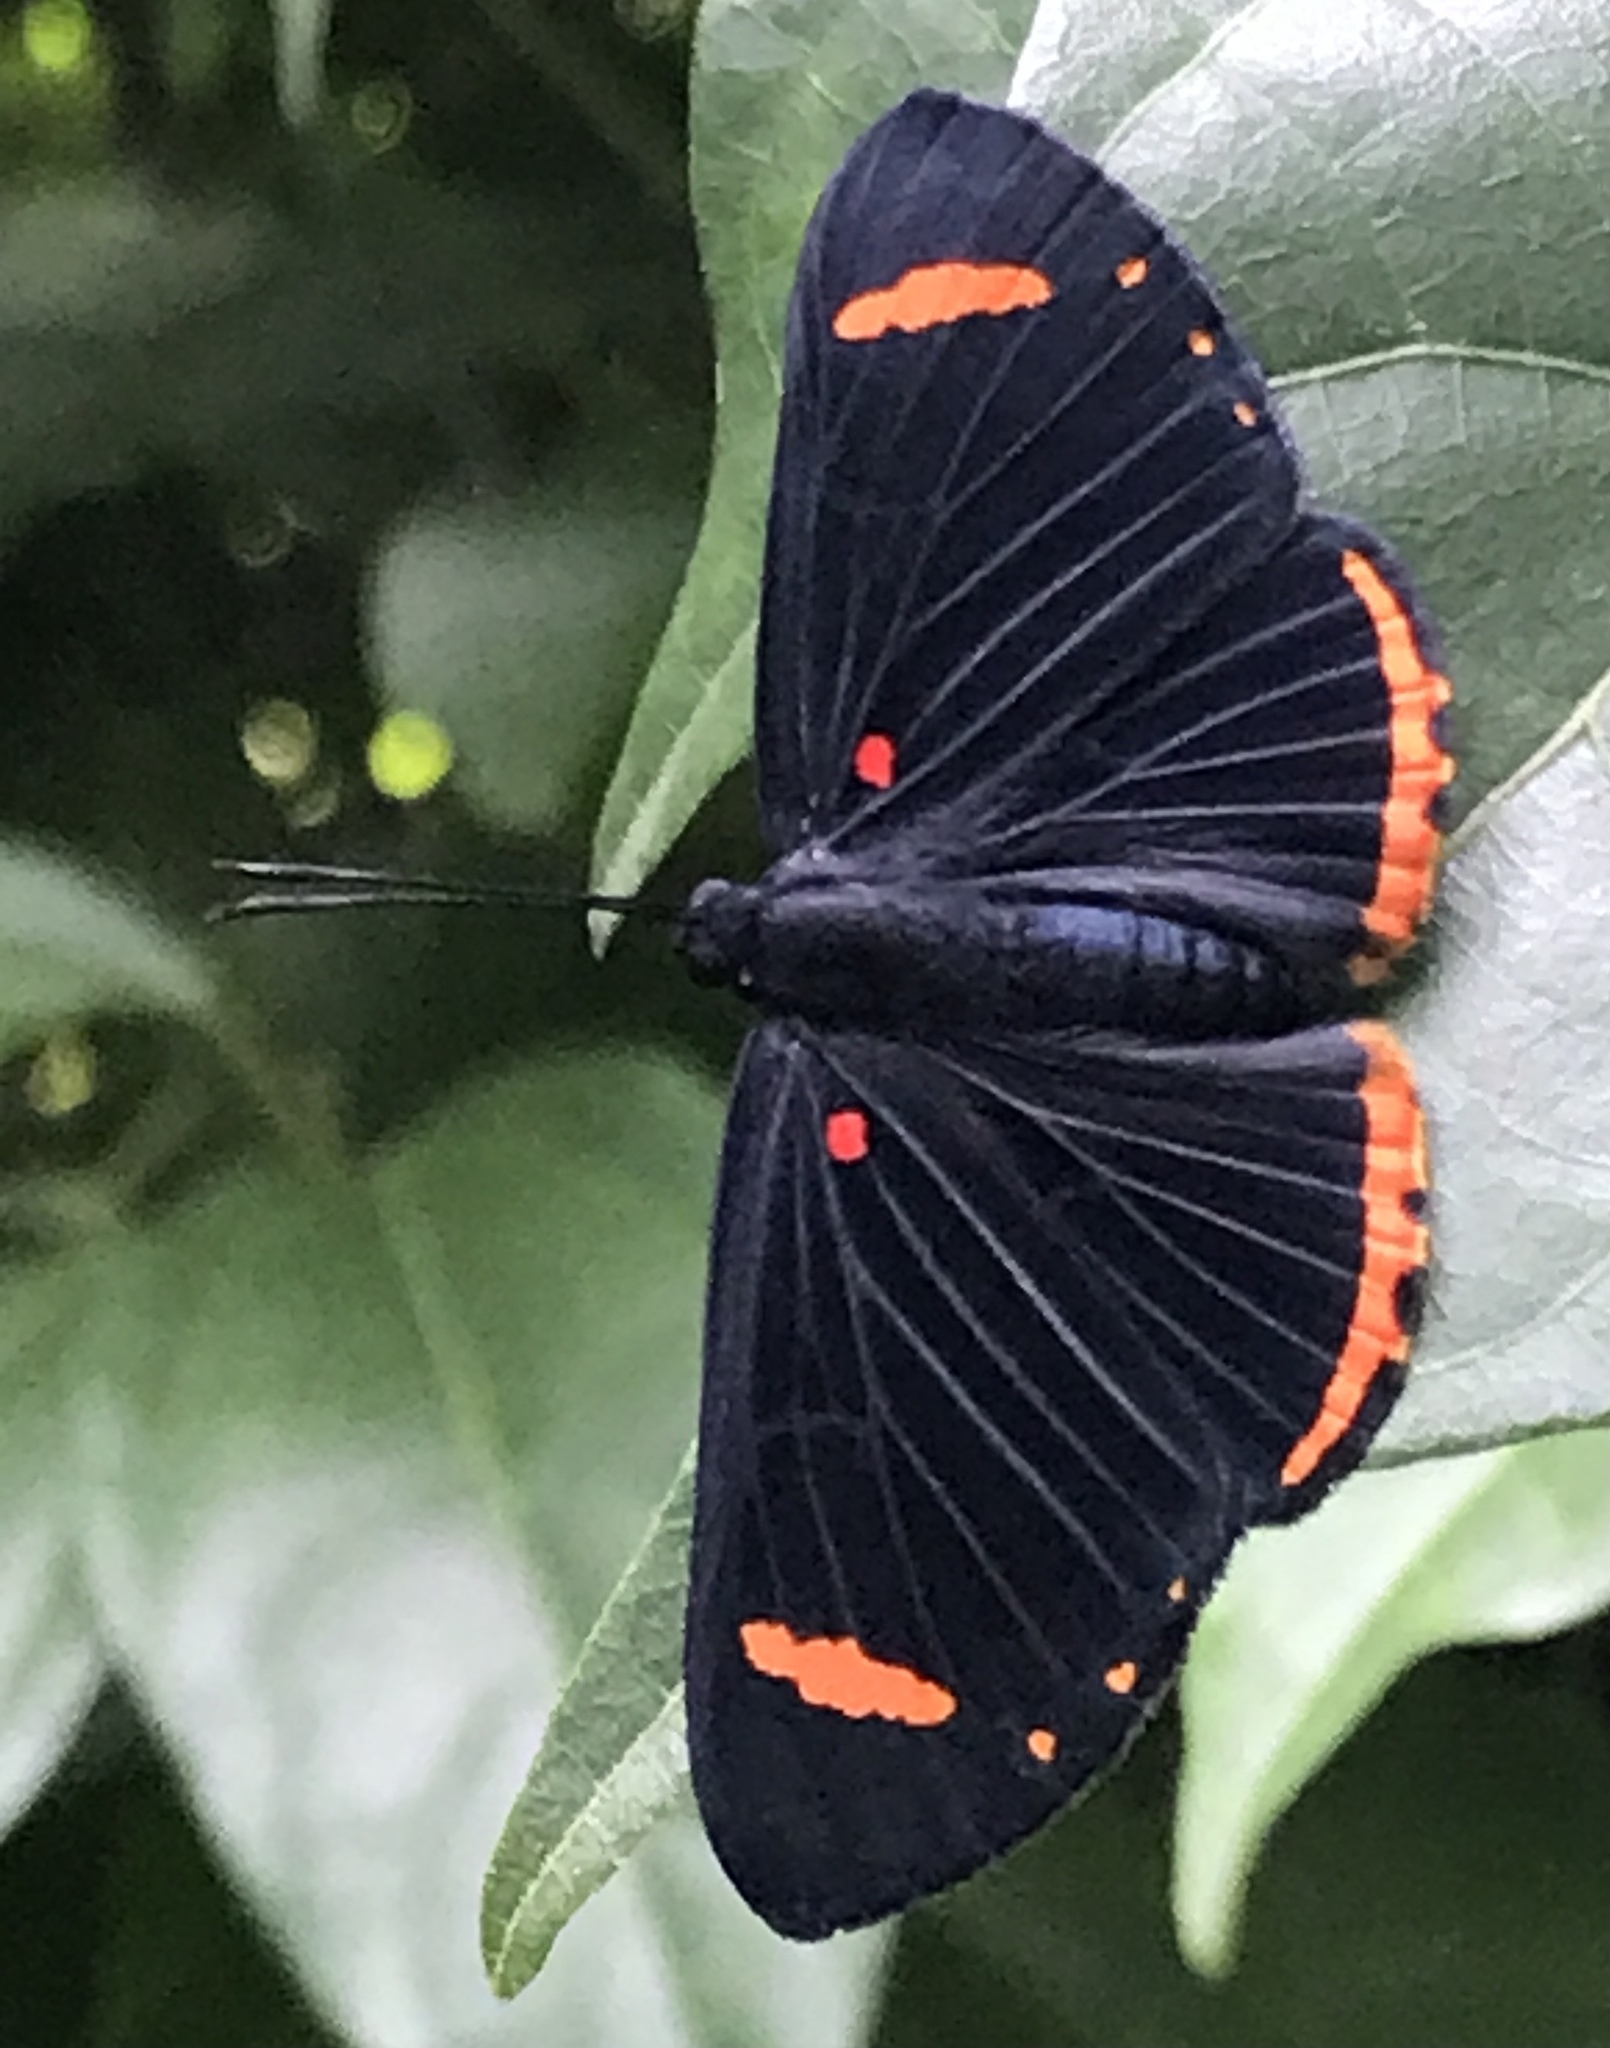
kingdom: Animalia
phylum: Arthropoda
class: Insecta
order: Lepidoptera
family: Lycaenidae
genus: Melanis
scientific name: Melanis xenia
